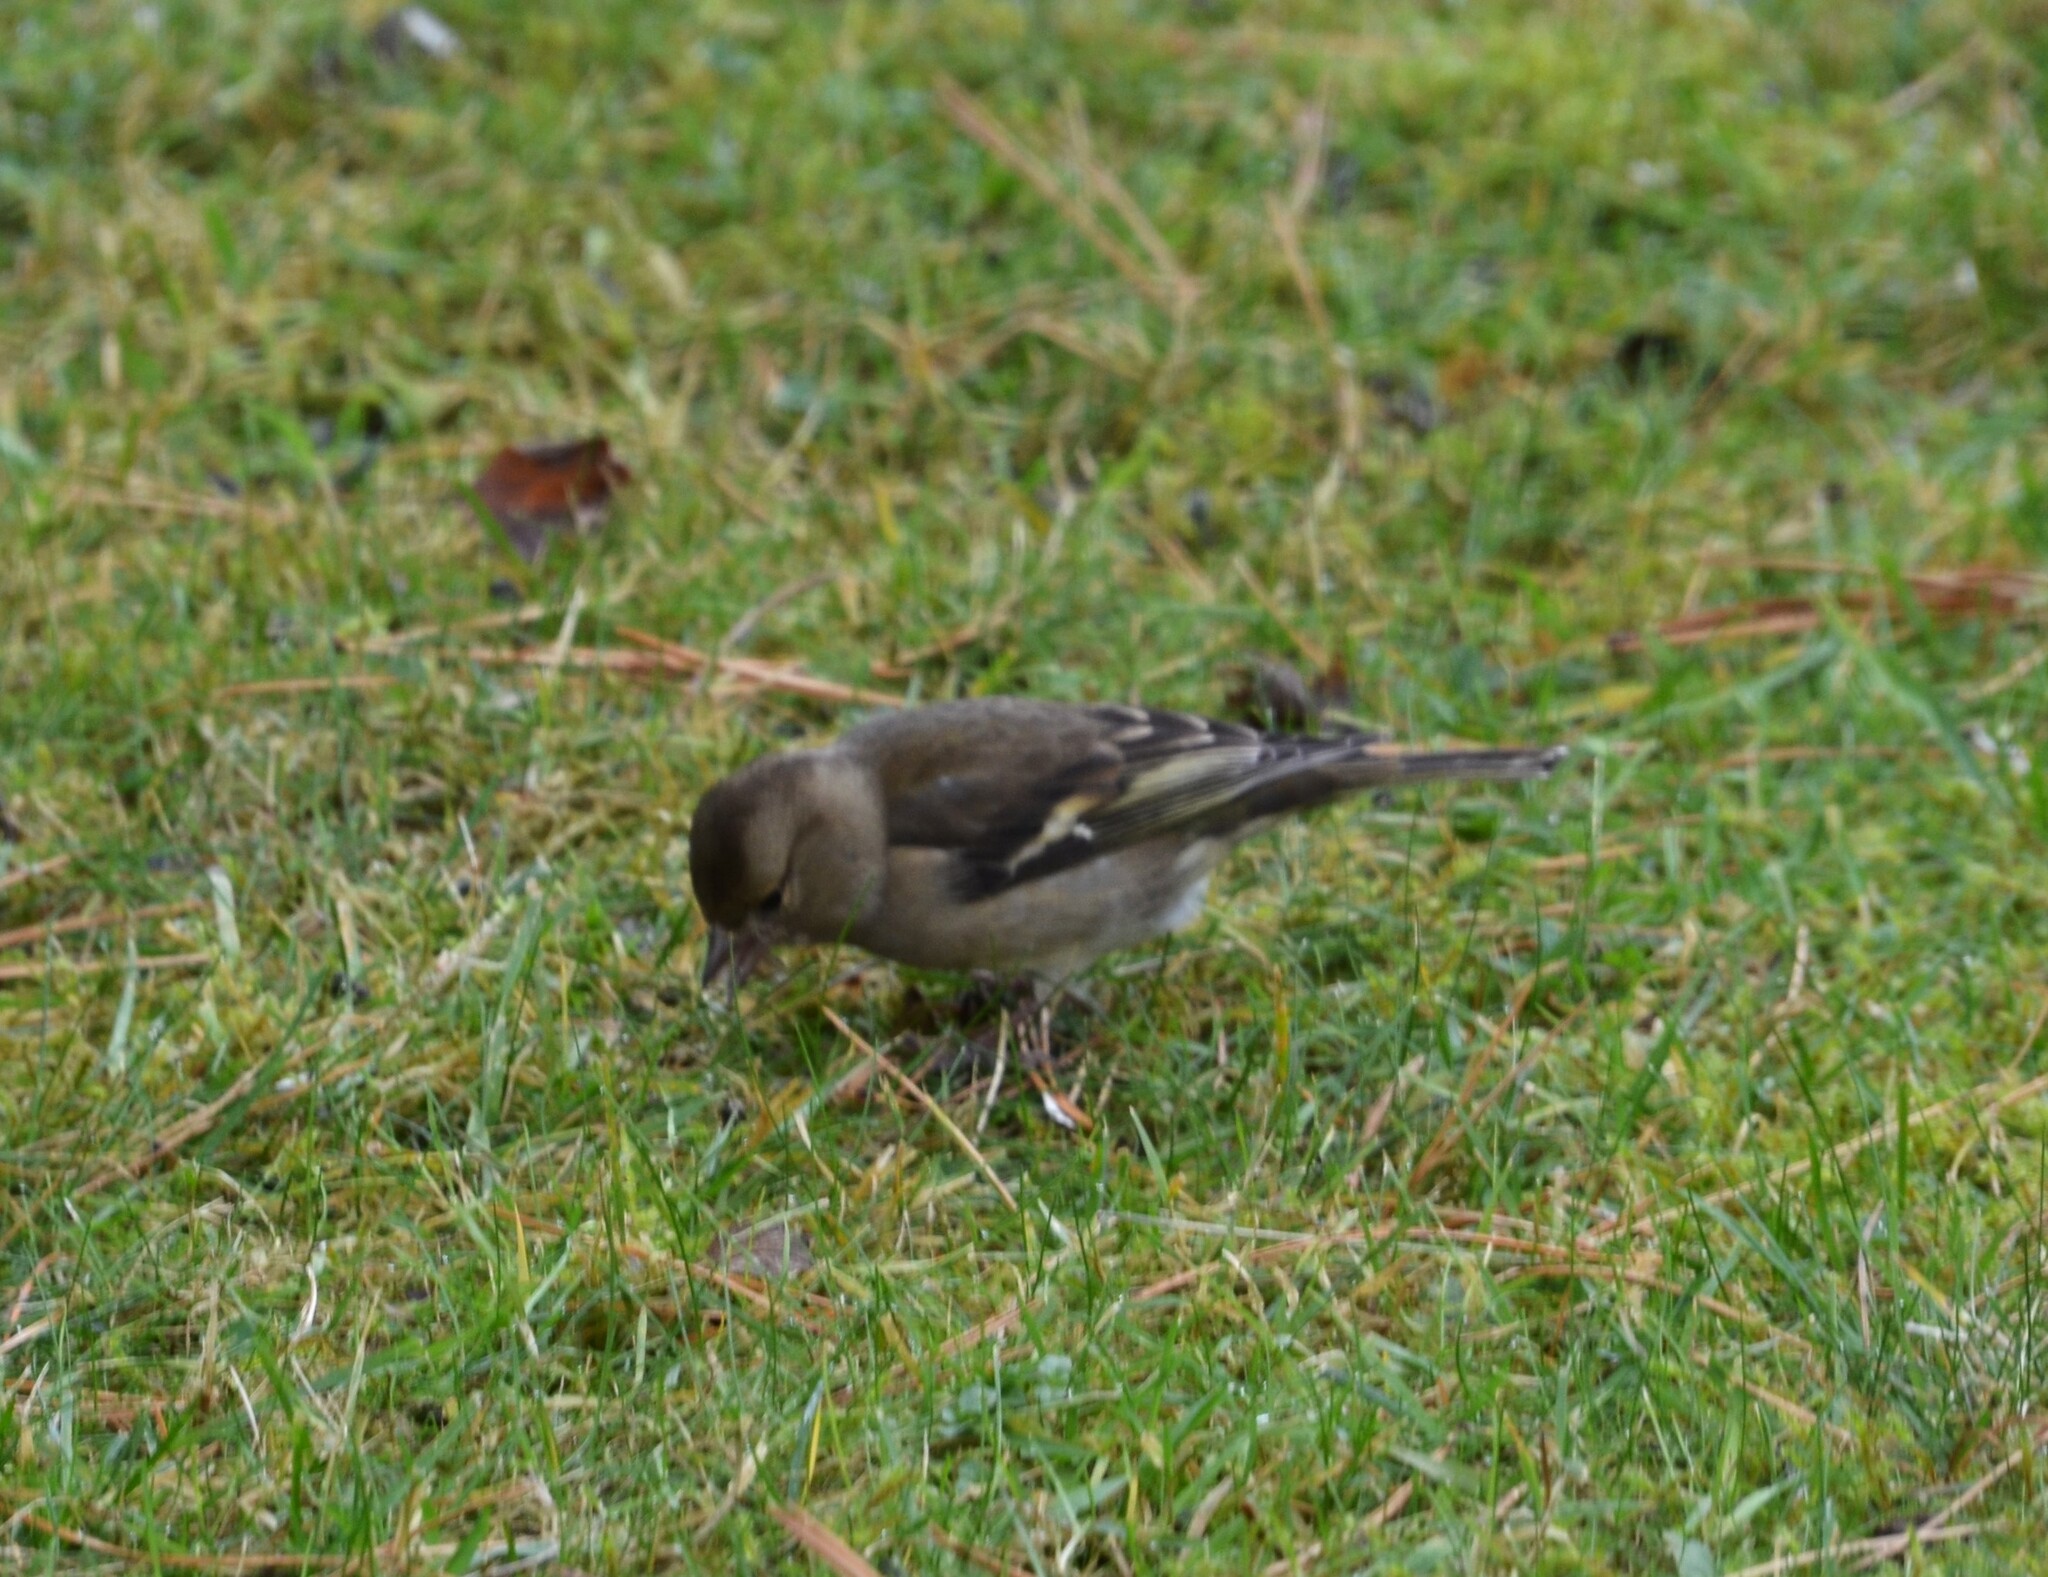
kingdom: Animalia
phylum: Chordata
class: Aves
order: Passeriformes
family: Fringillidae
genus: Fringilla
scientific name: Fringilla coelebs
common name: Common chaffinch
